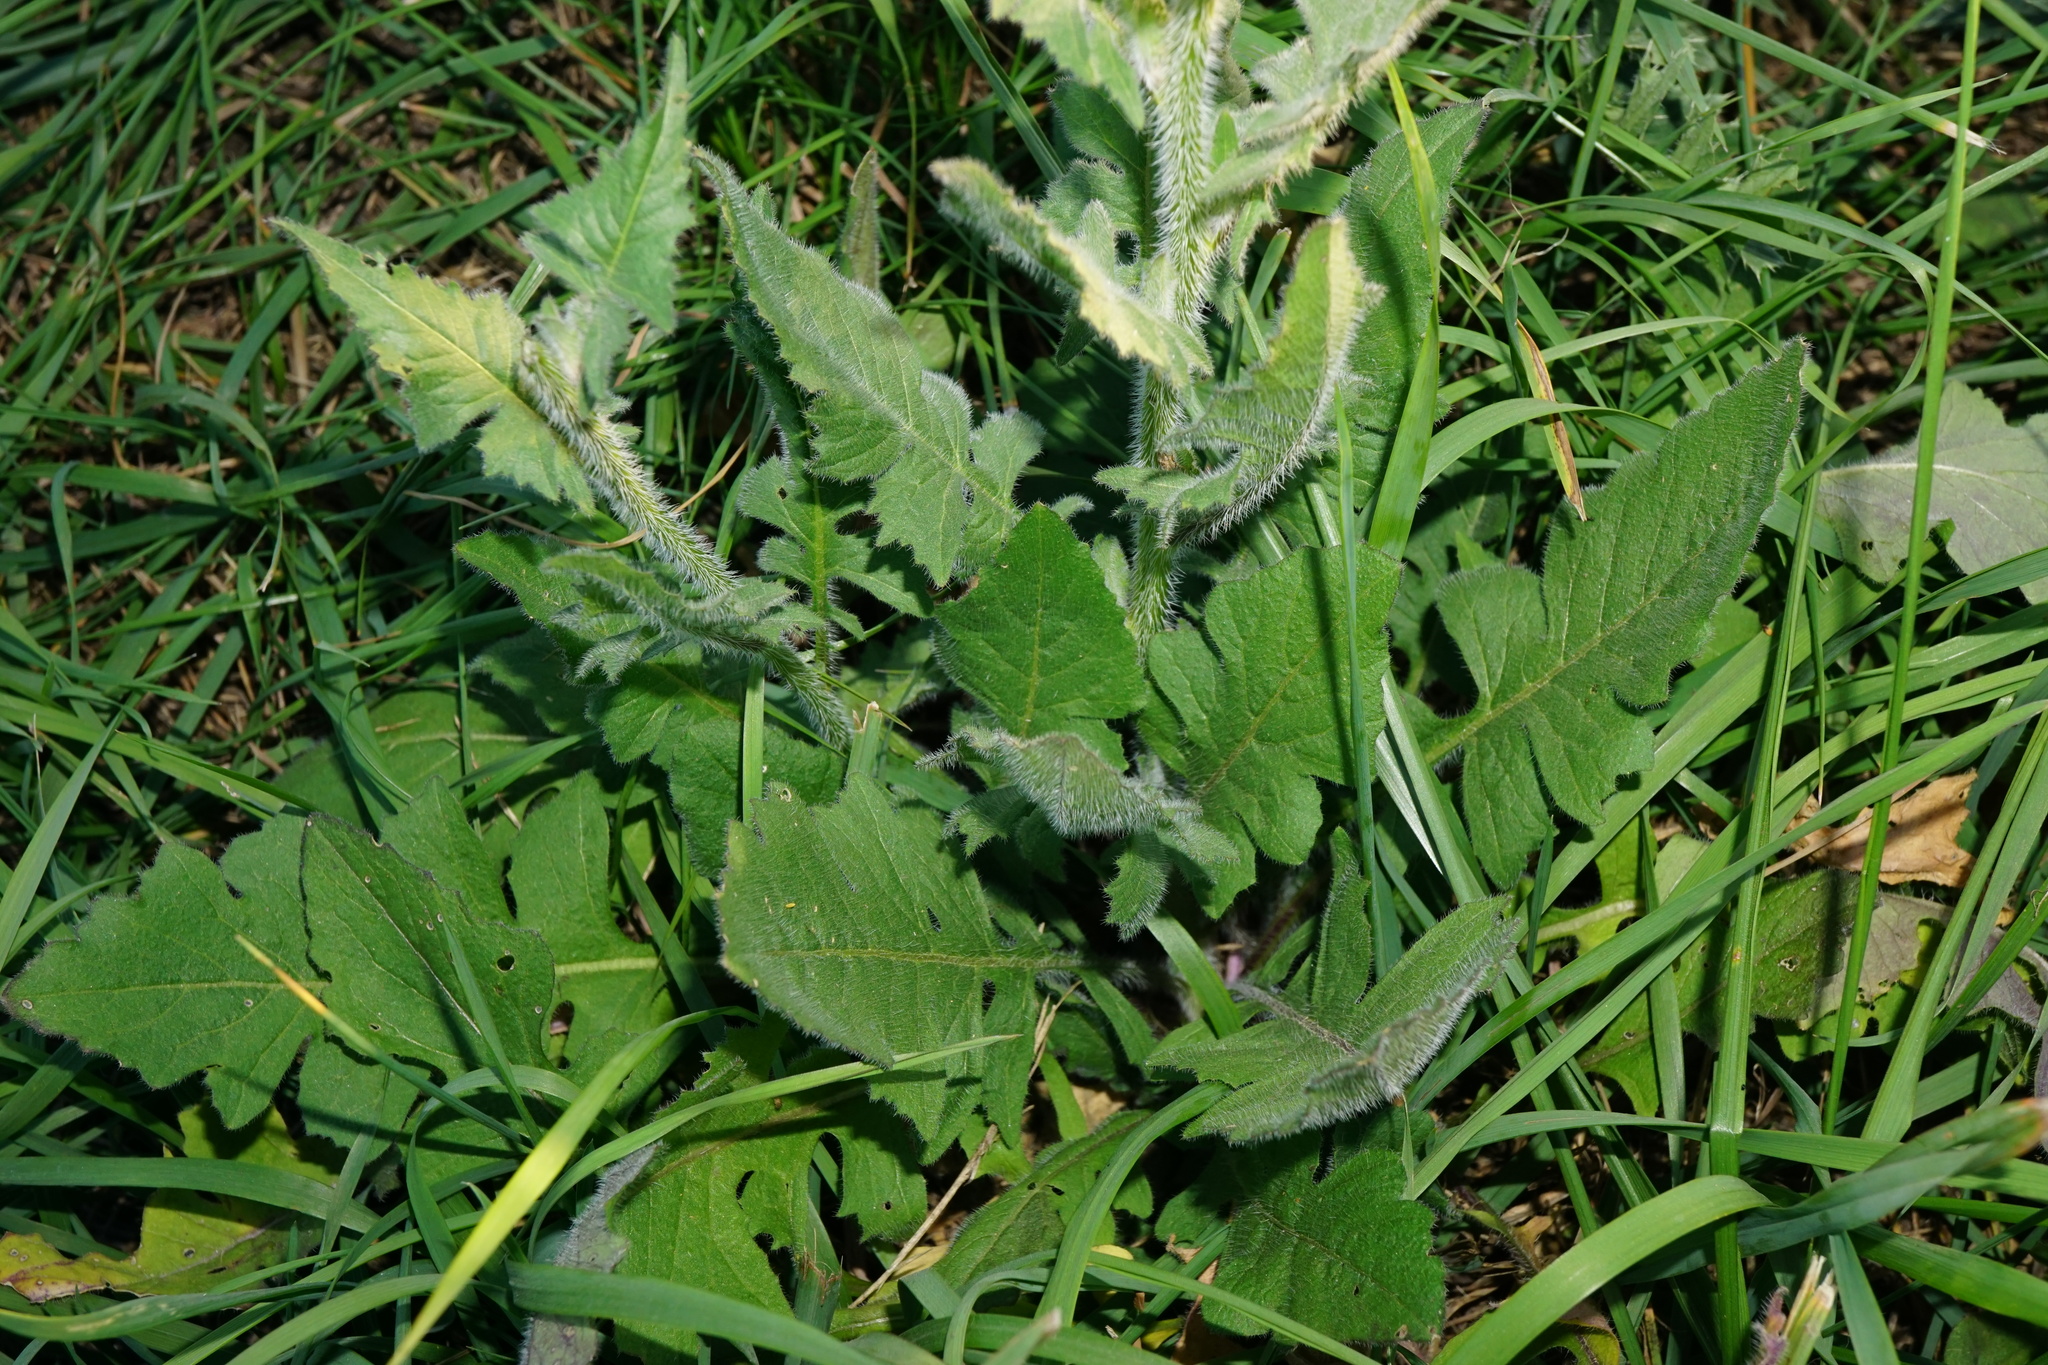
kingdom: Plantae
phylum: Tracheophyta
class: Magnoliopsida
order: Brassicales
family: Brassicaceae
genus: Sisymbrium
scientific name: Sisymbrium loeselii
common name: False london-rocket
